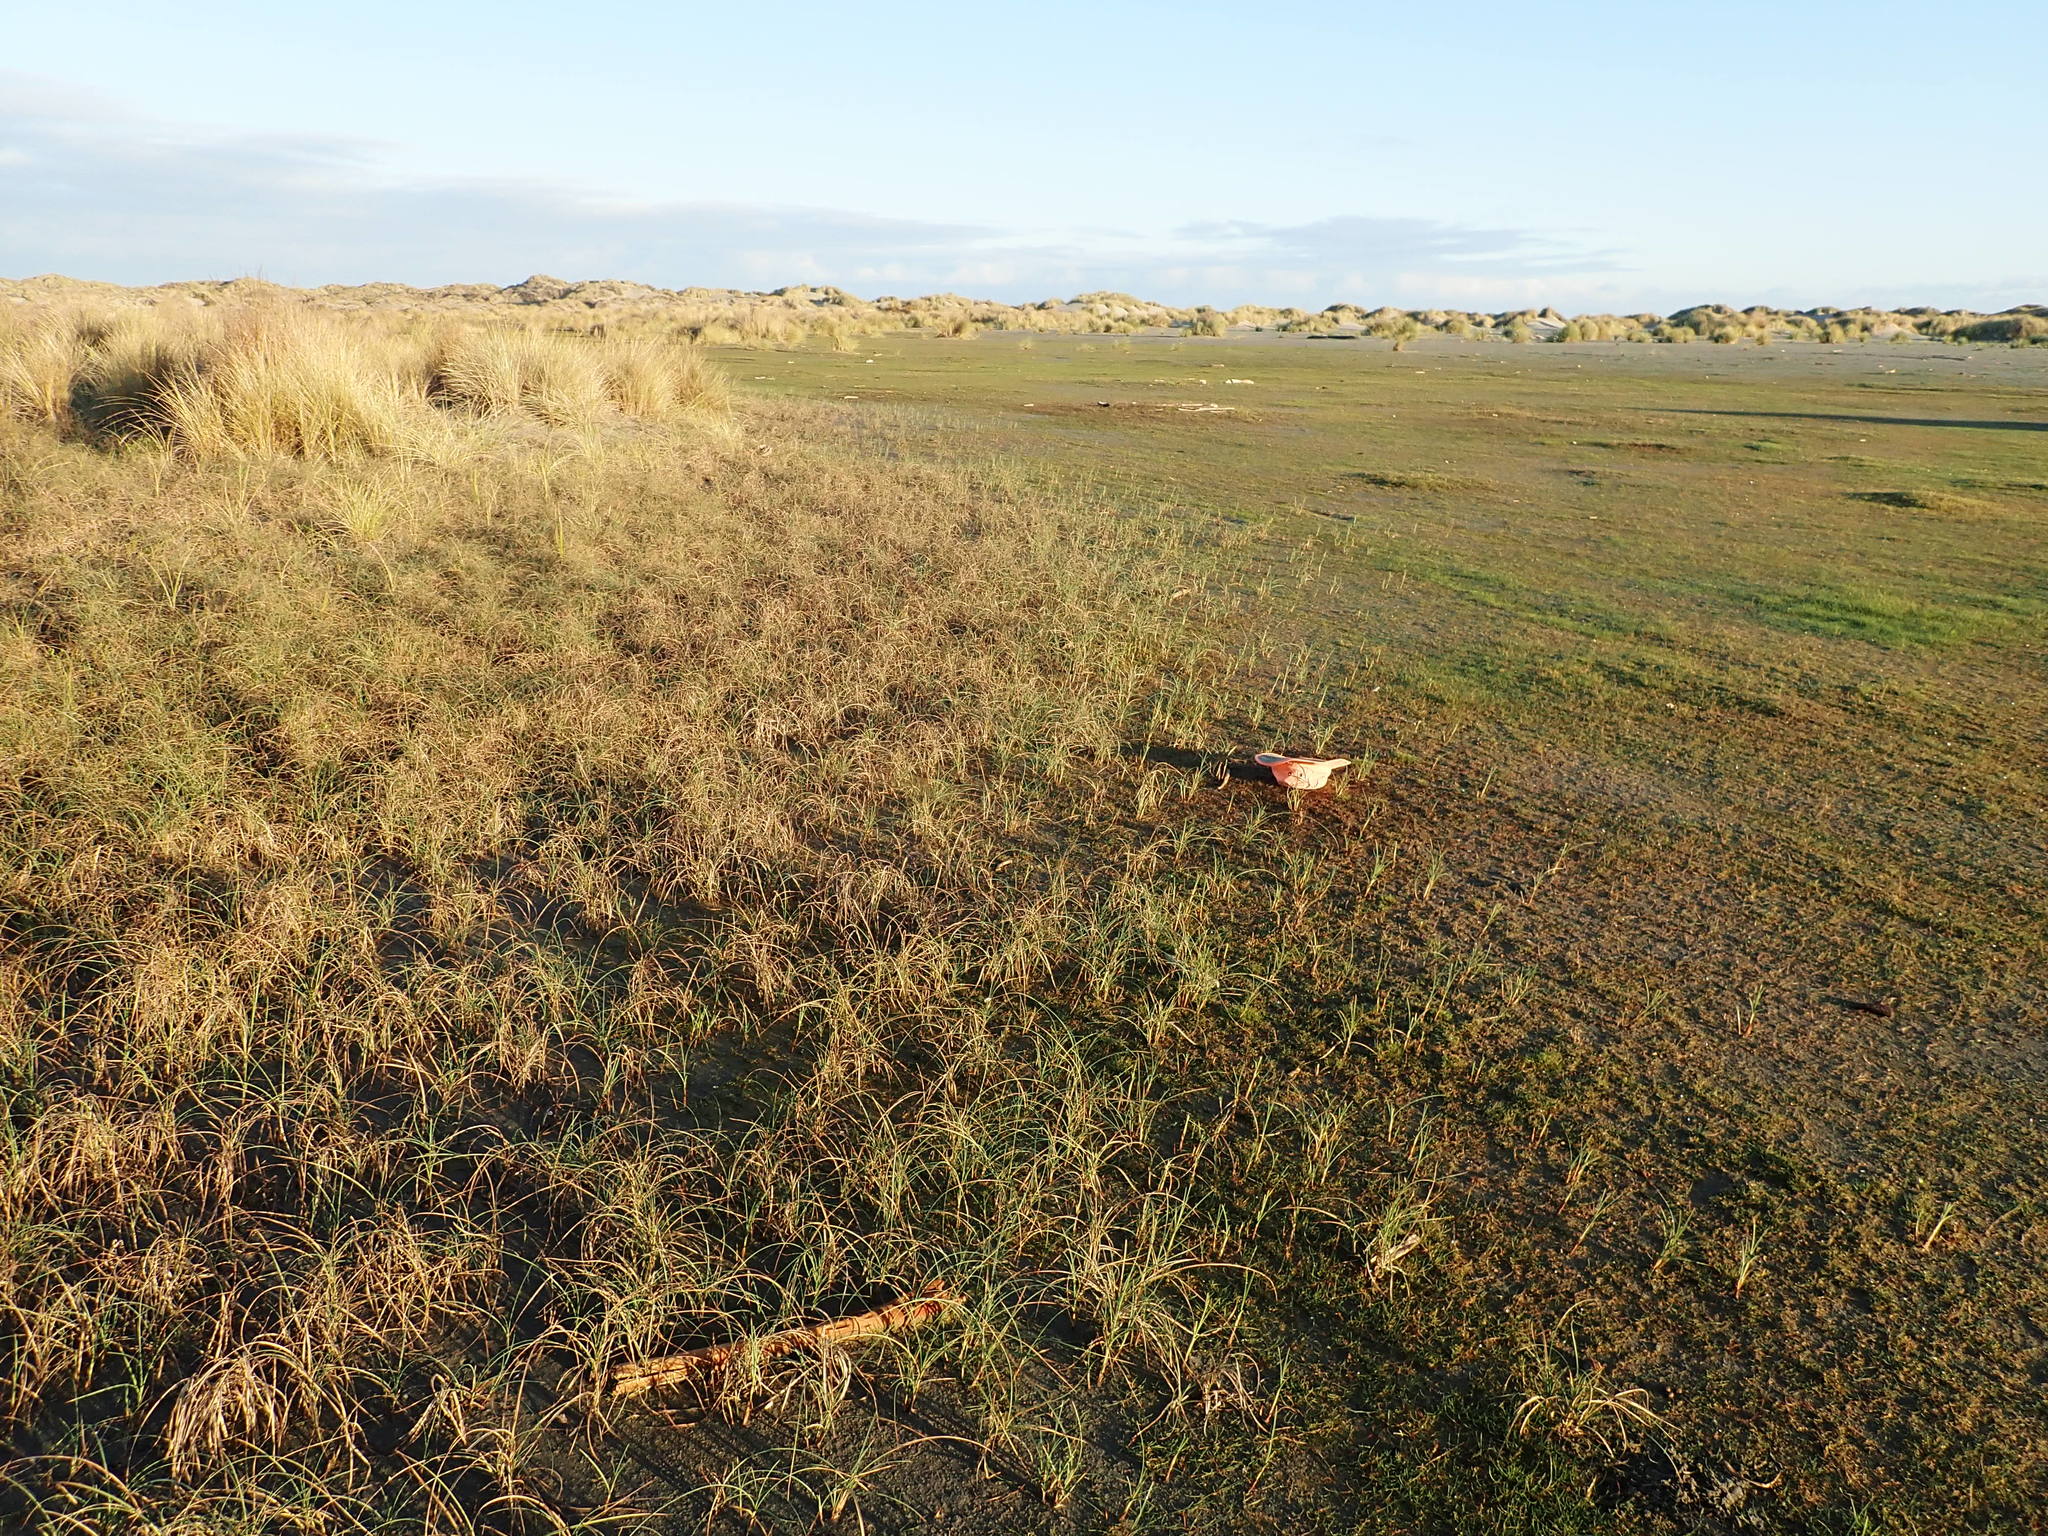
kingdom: Plantae
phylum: Tracheophyta
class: Liliopsida
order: Poales
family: Cyperaceae
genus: Carex
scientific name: Carex pumila
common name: Dwarf sedge
